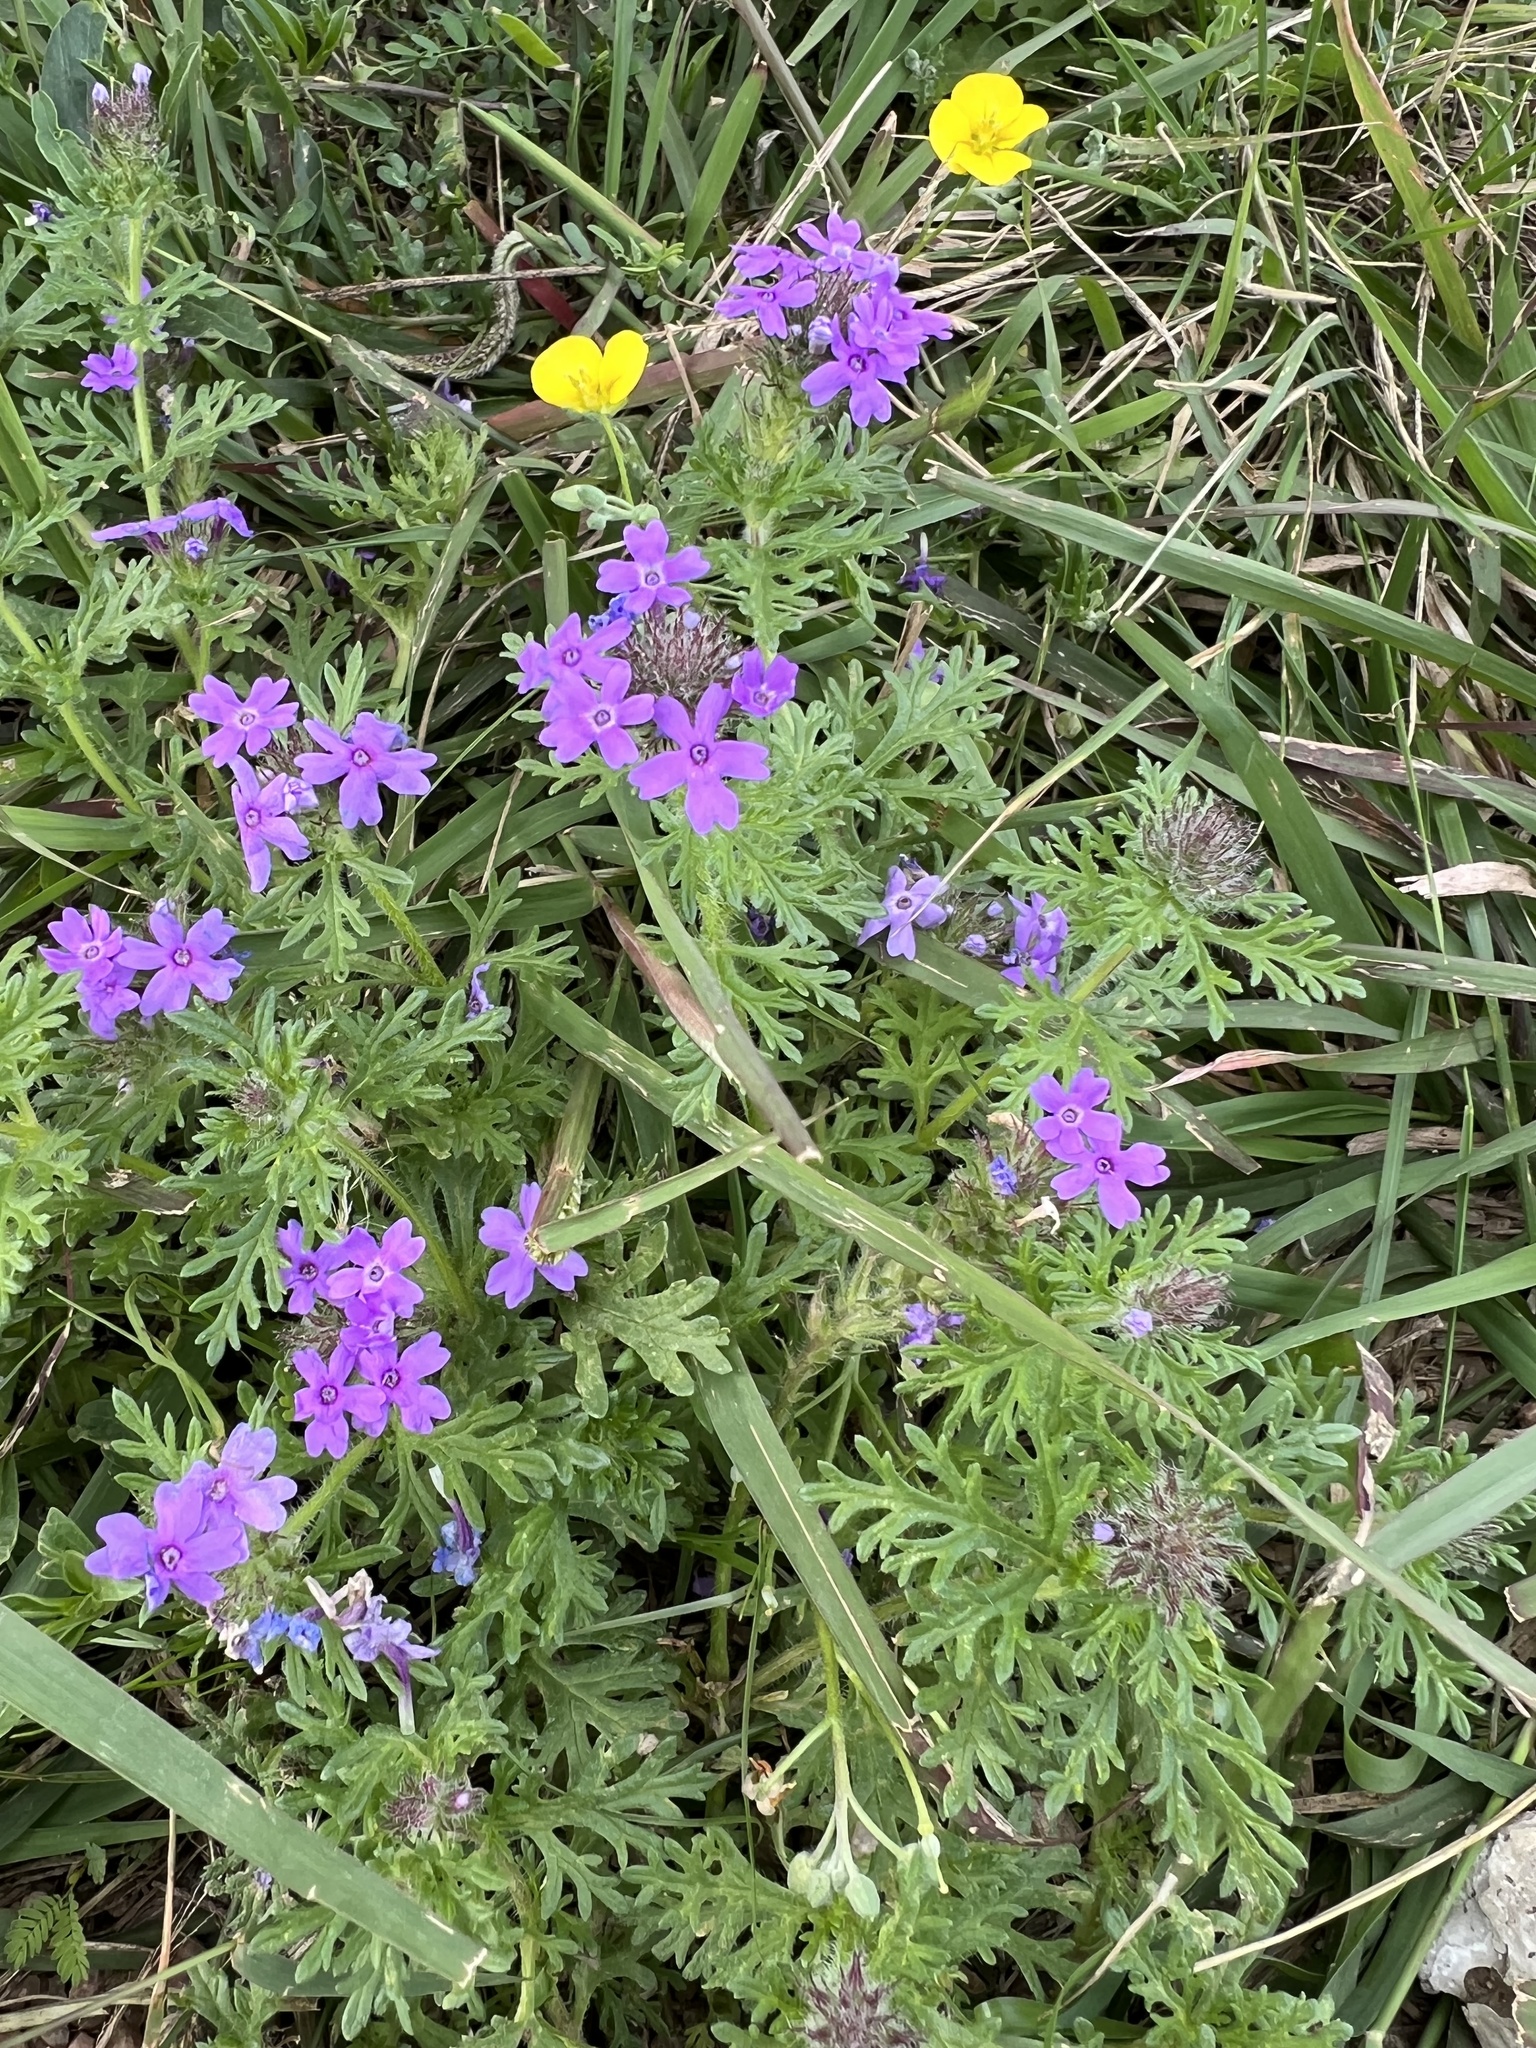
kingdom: Plantae
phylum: Tracheophyta
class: Magnoliopsida
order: Lamiales
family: Verbenaceae
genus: Verbena
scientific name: Verbena bipinnatifida
